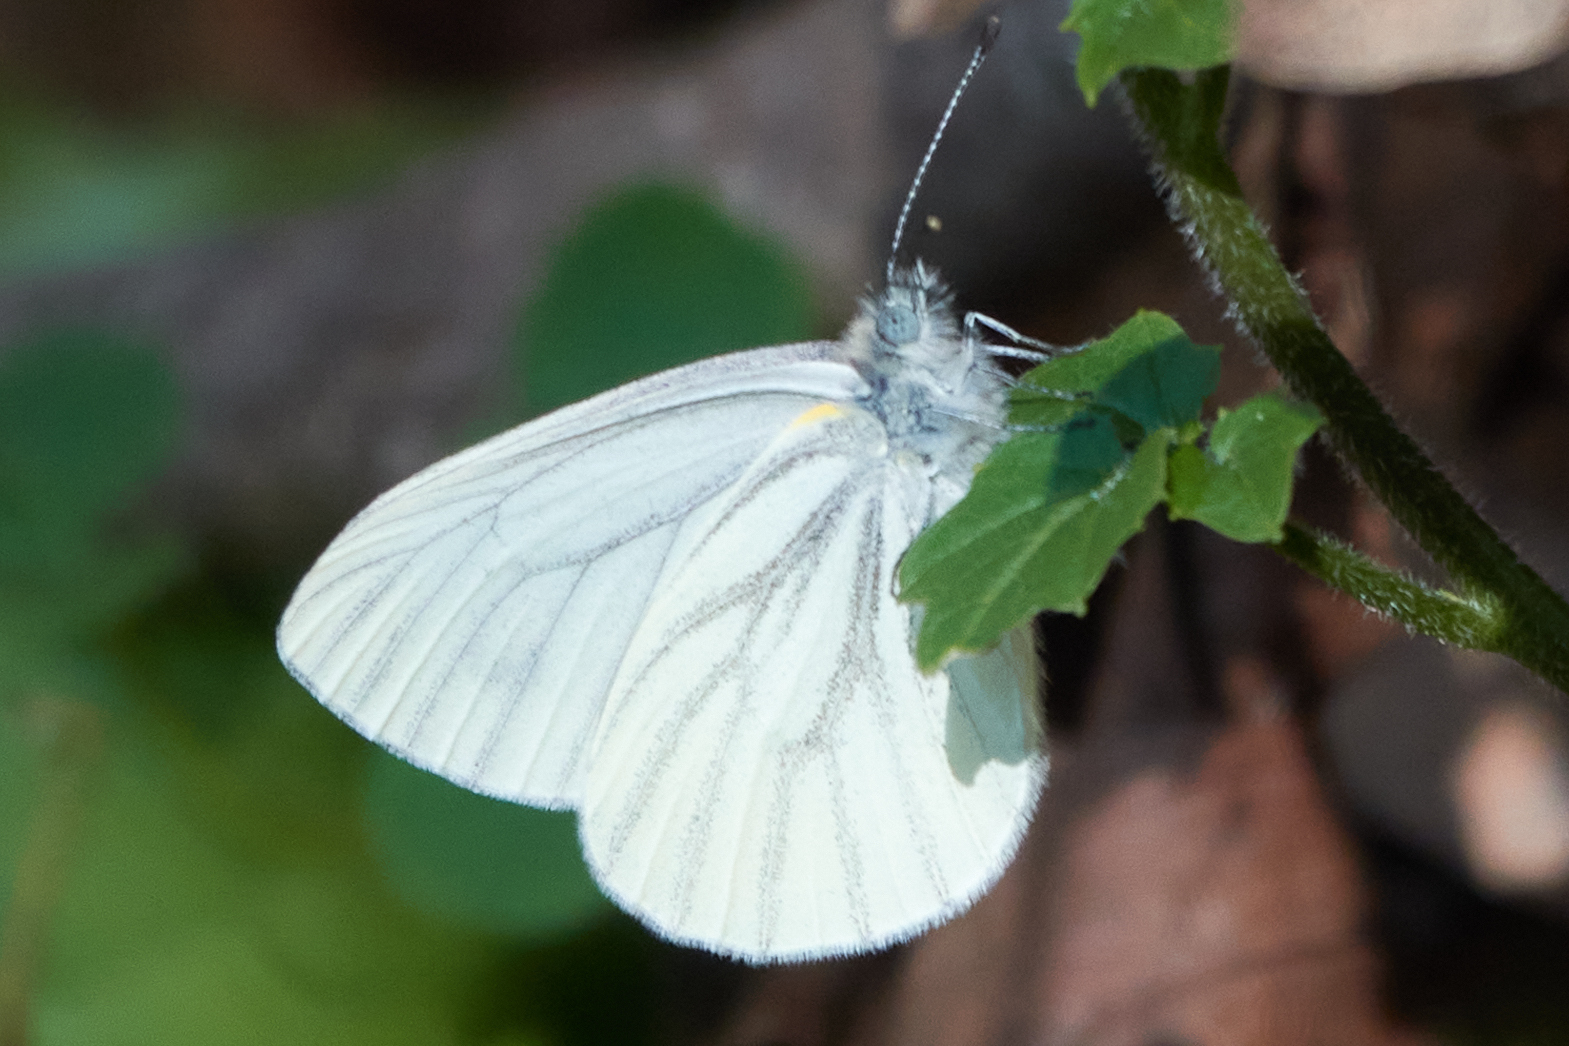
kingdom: Animalia
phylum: Arthropoda
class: Insecta
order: Lepidoptera
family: Pieridae
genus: Pieris
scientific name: Pieris marginalis
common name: Margined white
